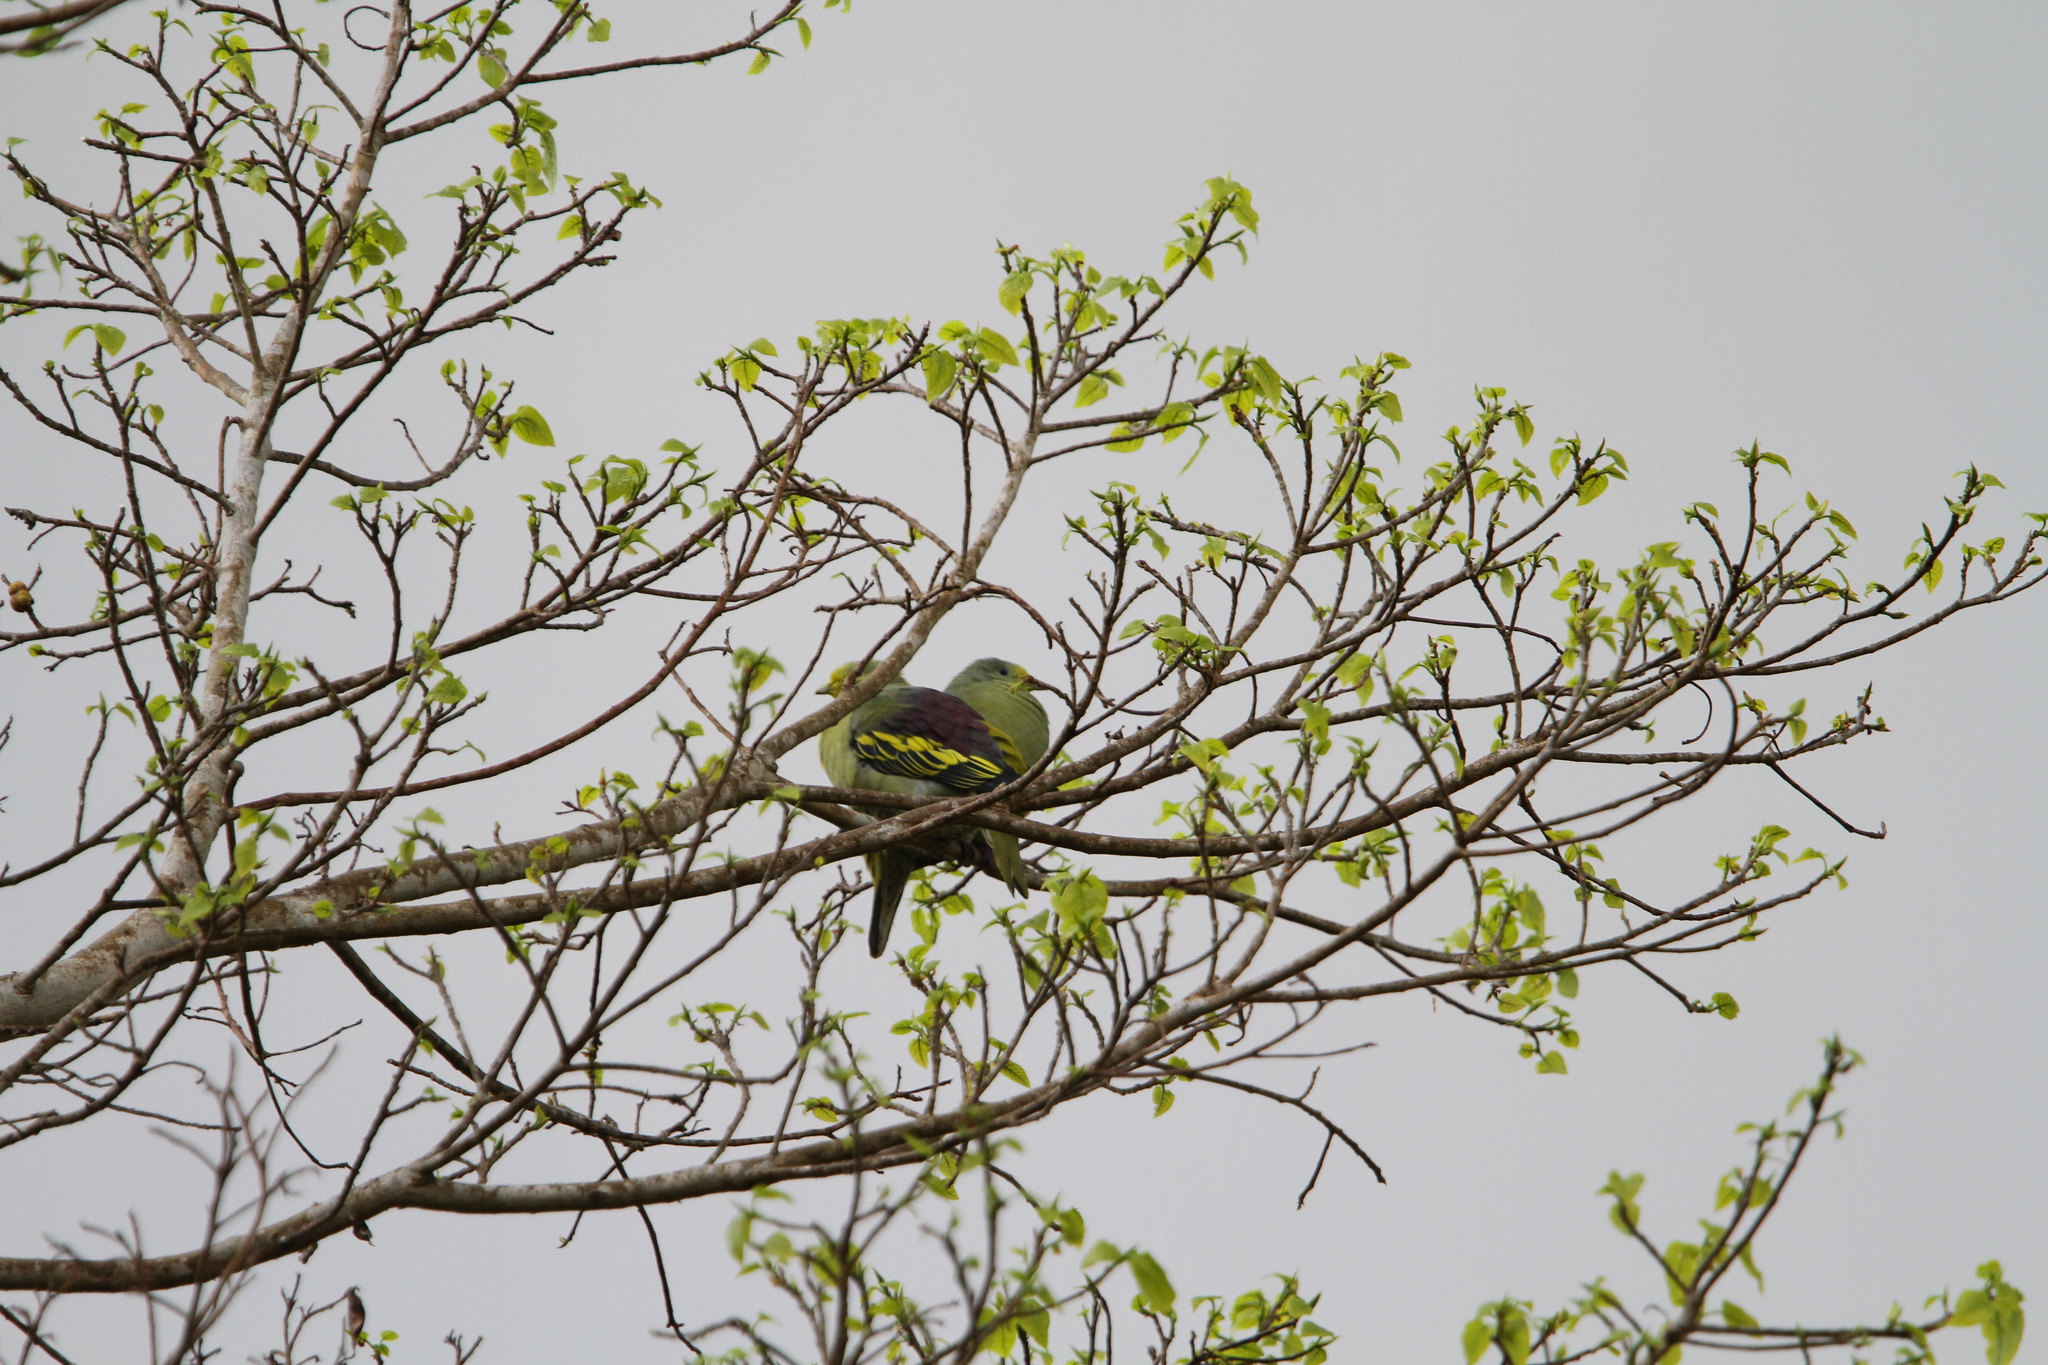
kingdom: Animalia
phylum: Chordata
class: Aves
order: Columbiformes
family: Columbidae
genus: Treron
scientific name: Treron teysmannii
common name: Sumba green pigeon
